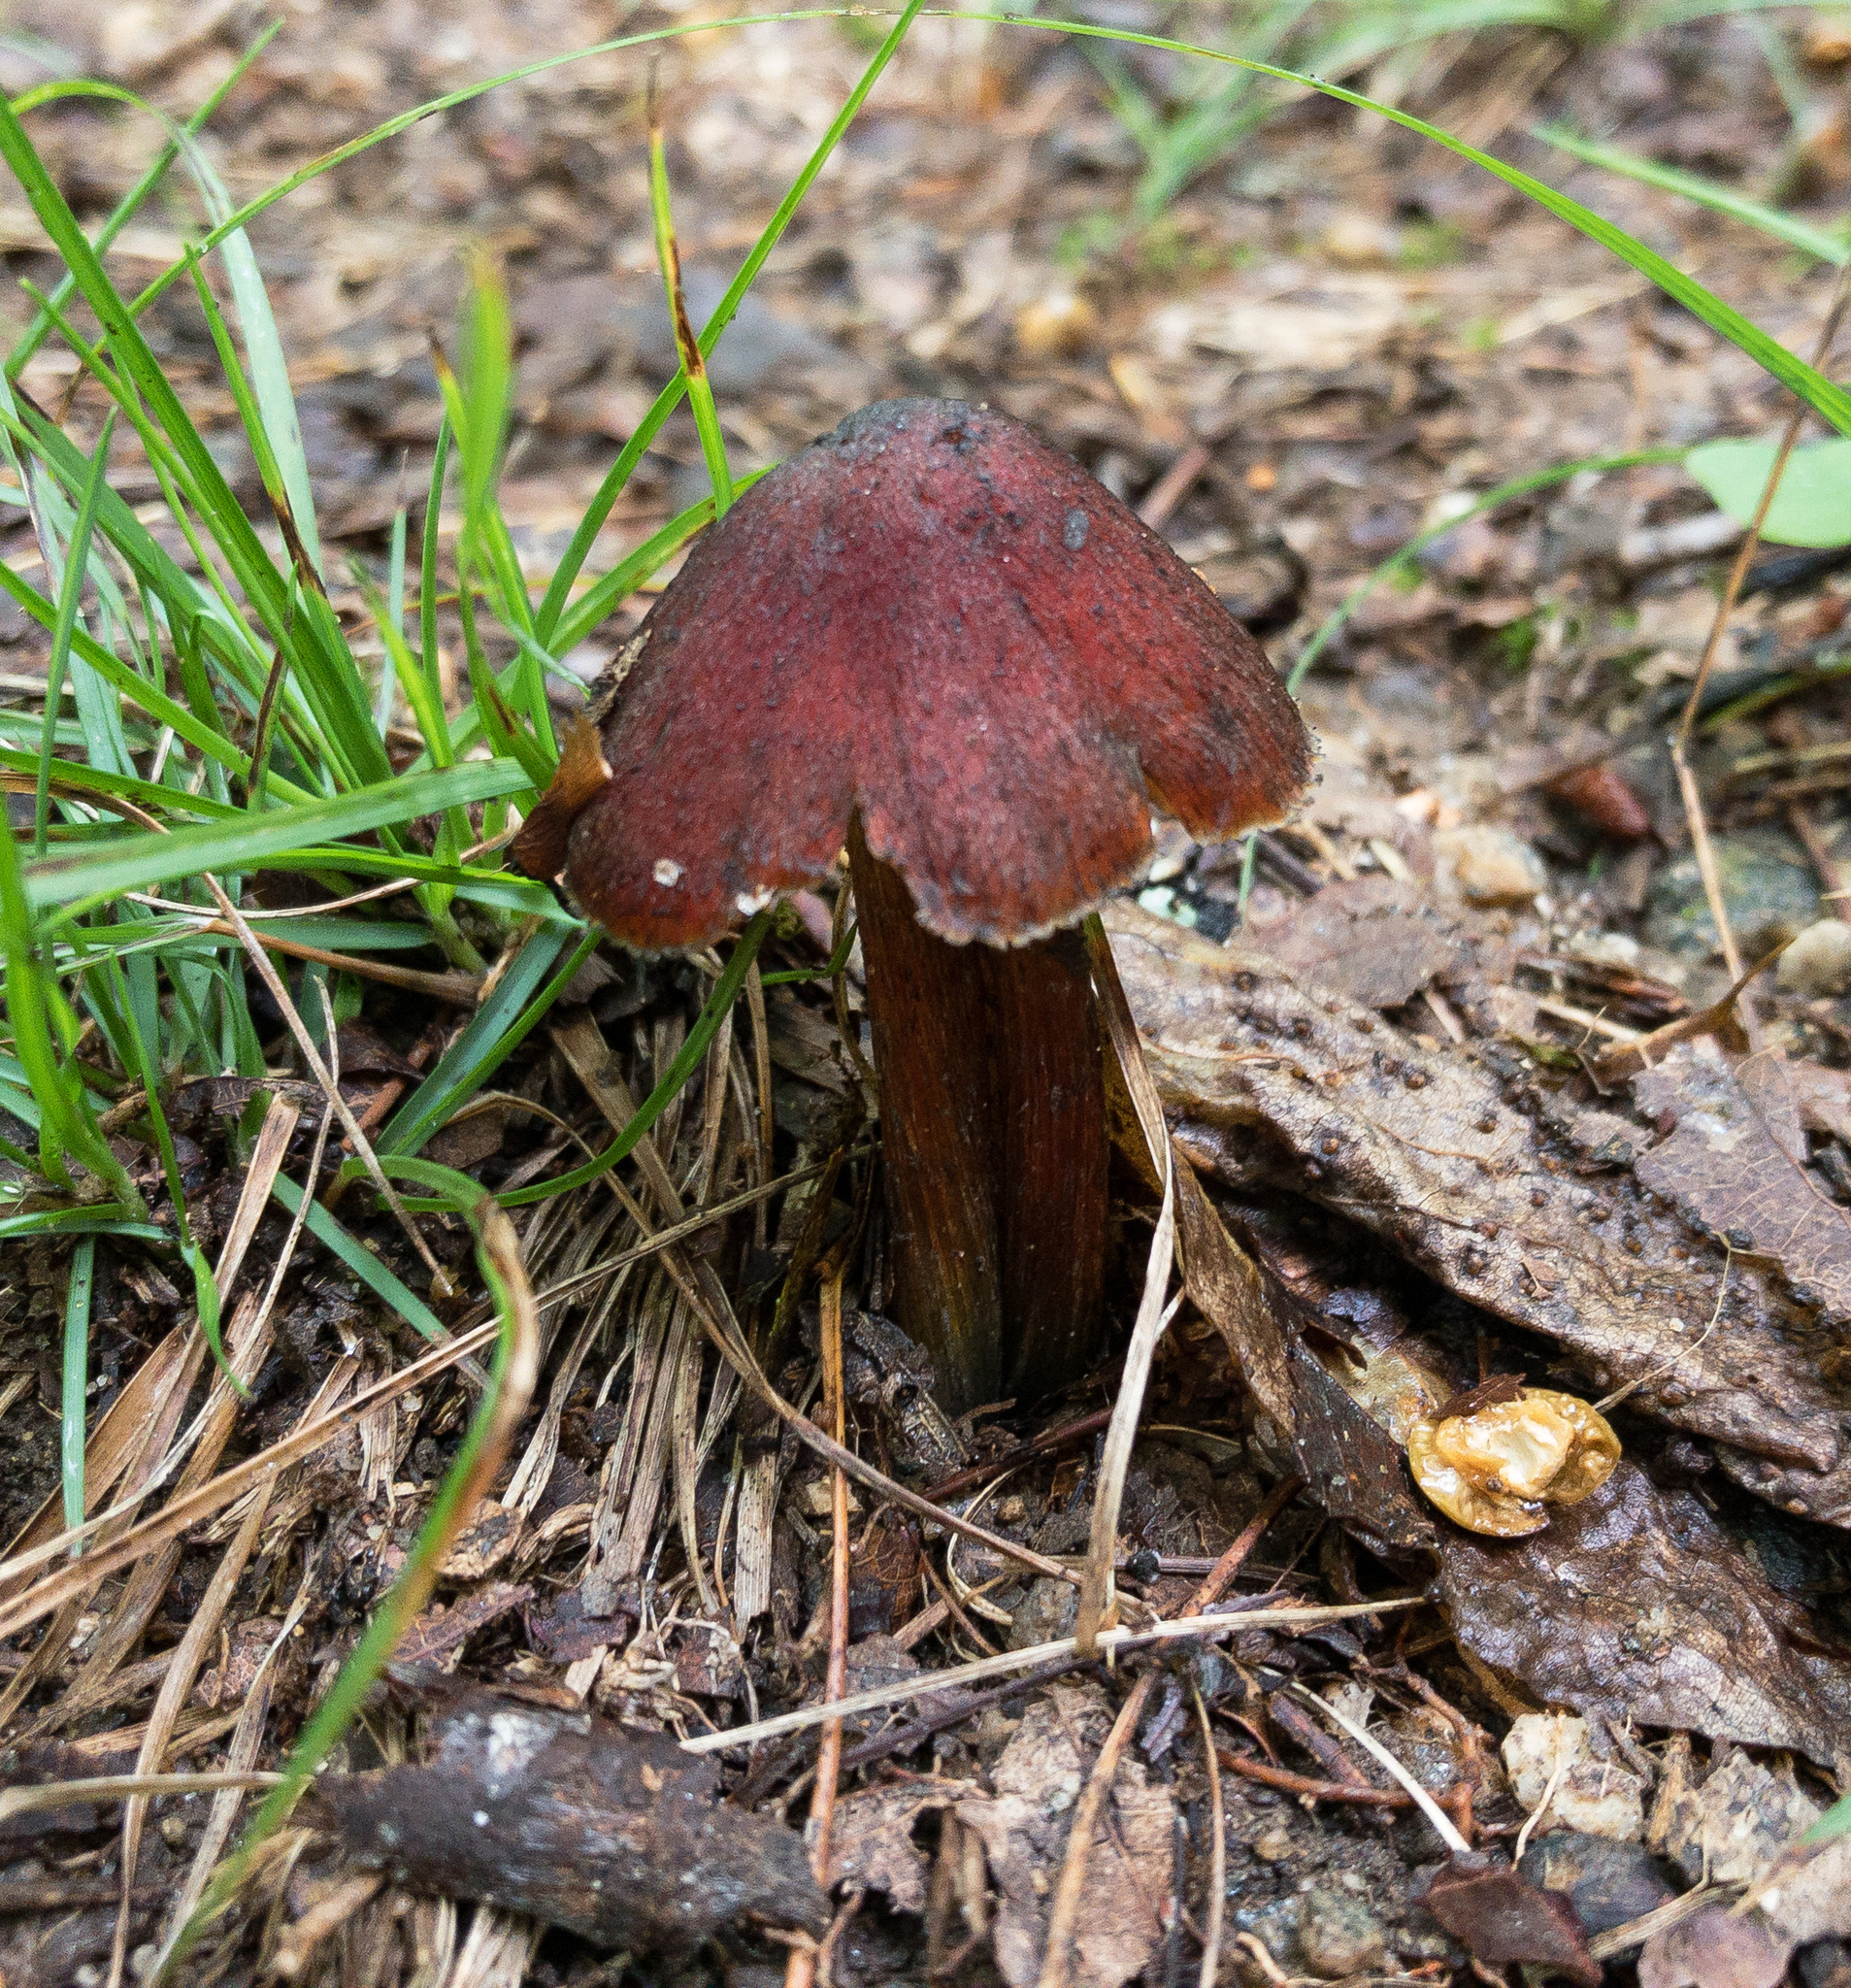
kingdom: Fungi
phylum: Basidiomycota
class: Agaricomycetes
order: Agaricales
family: Hygrophoraceae
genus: Hygrocybe
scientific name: Hygrocybe conica
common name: Blackening wax-cap
